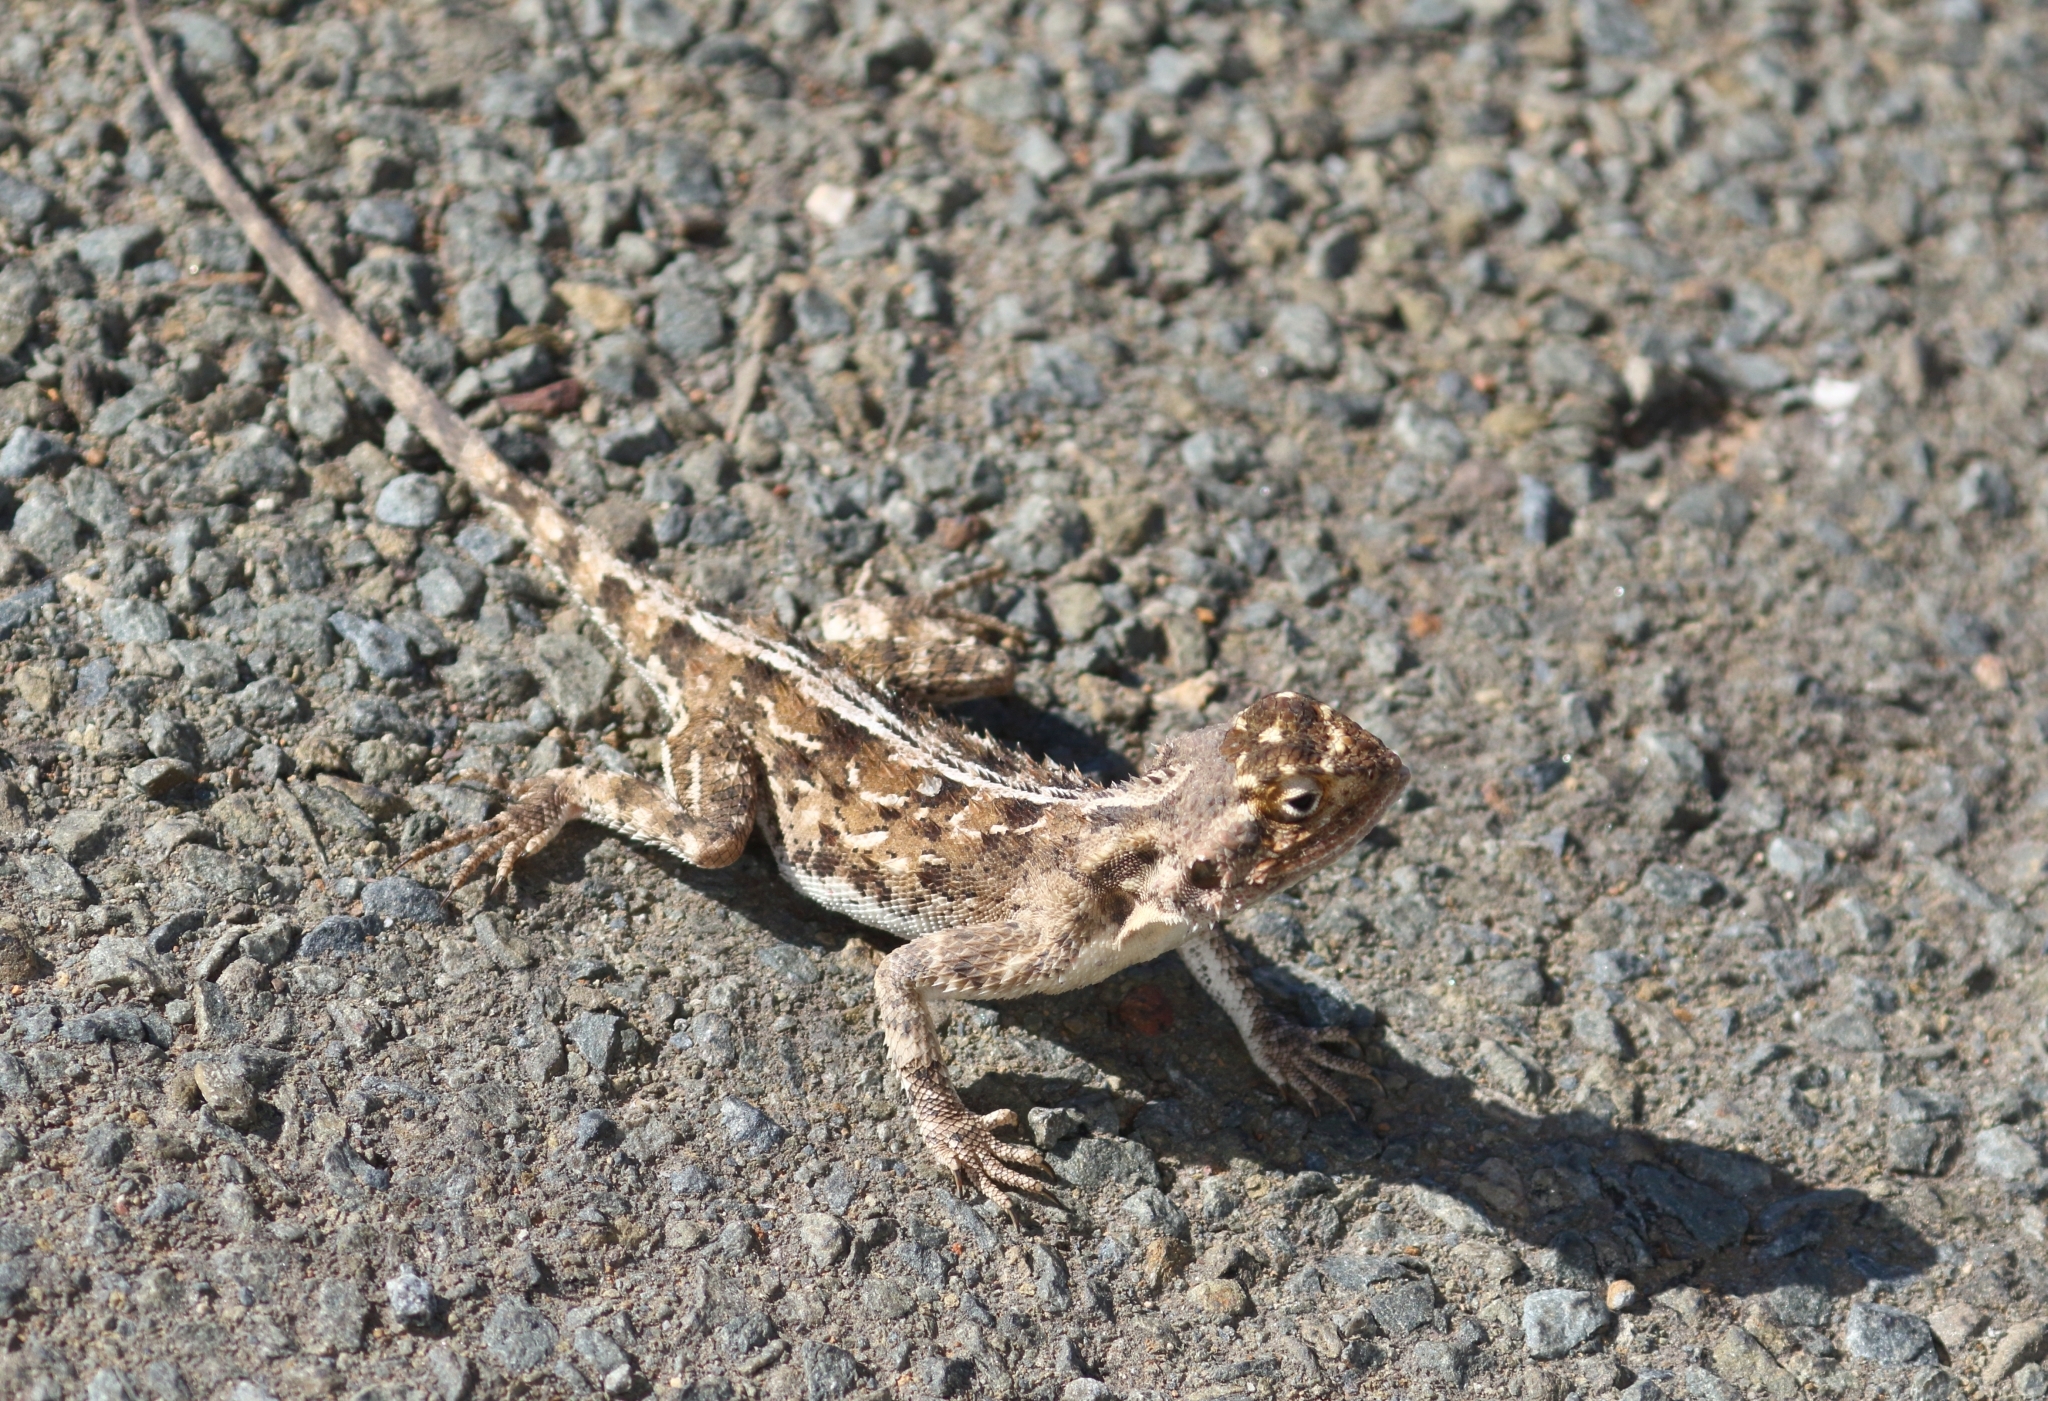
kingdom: Animalia
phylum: Chordata
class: Squamata
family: Agamidae
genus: Agama
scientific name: Agama aculeata
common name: Common ground agama
